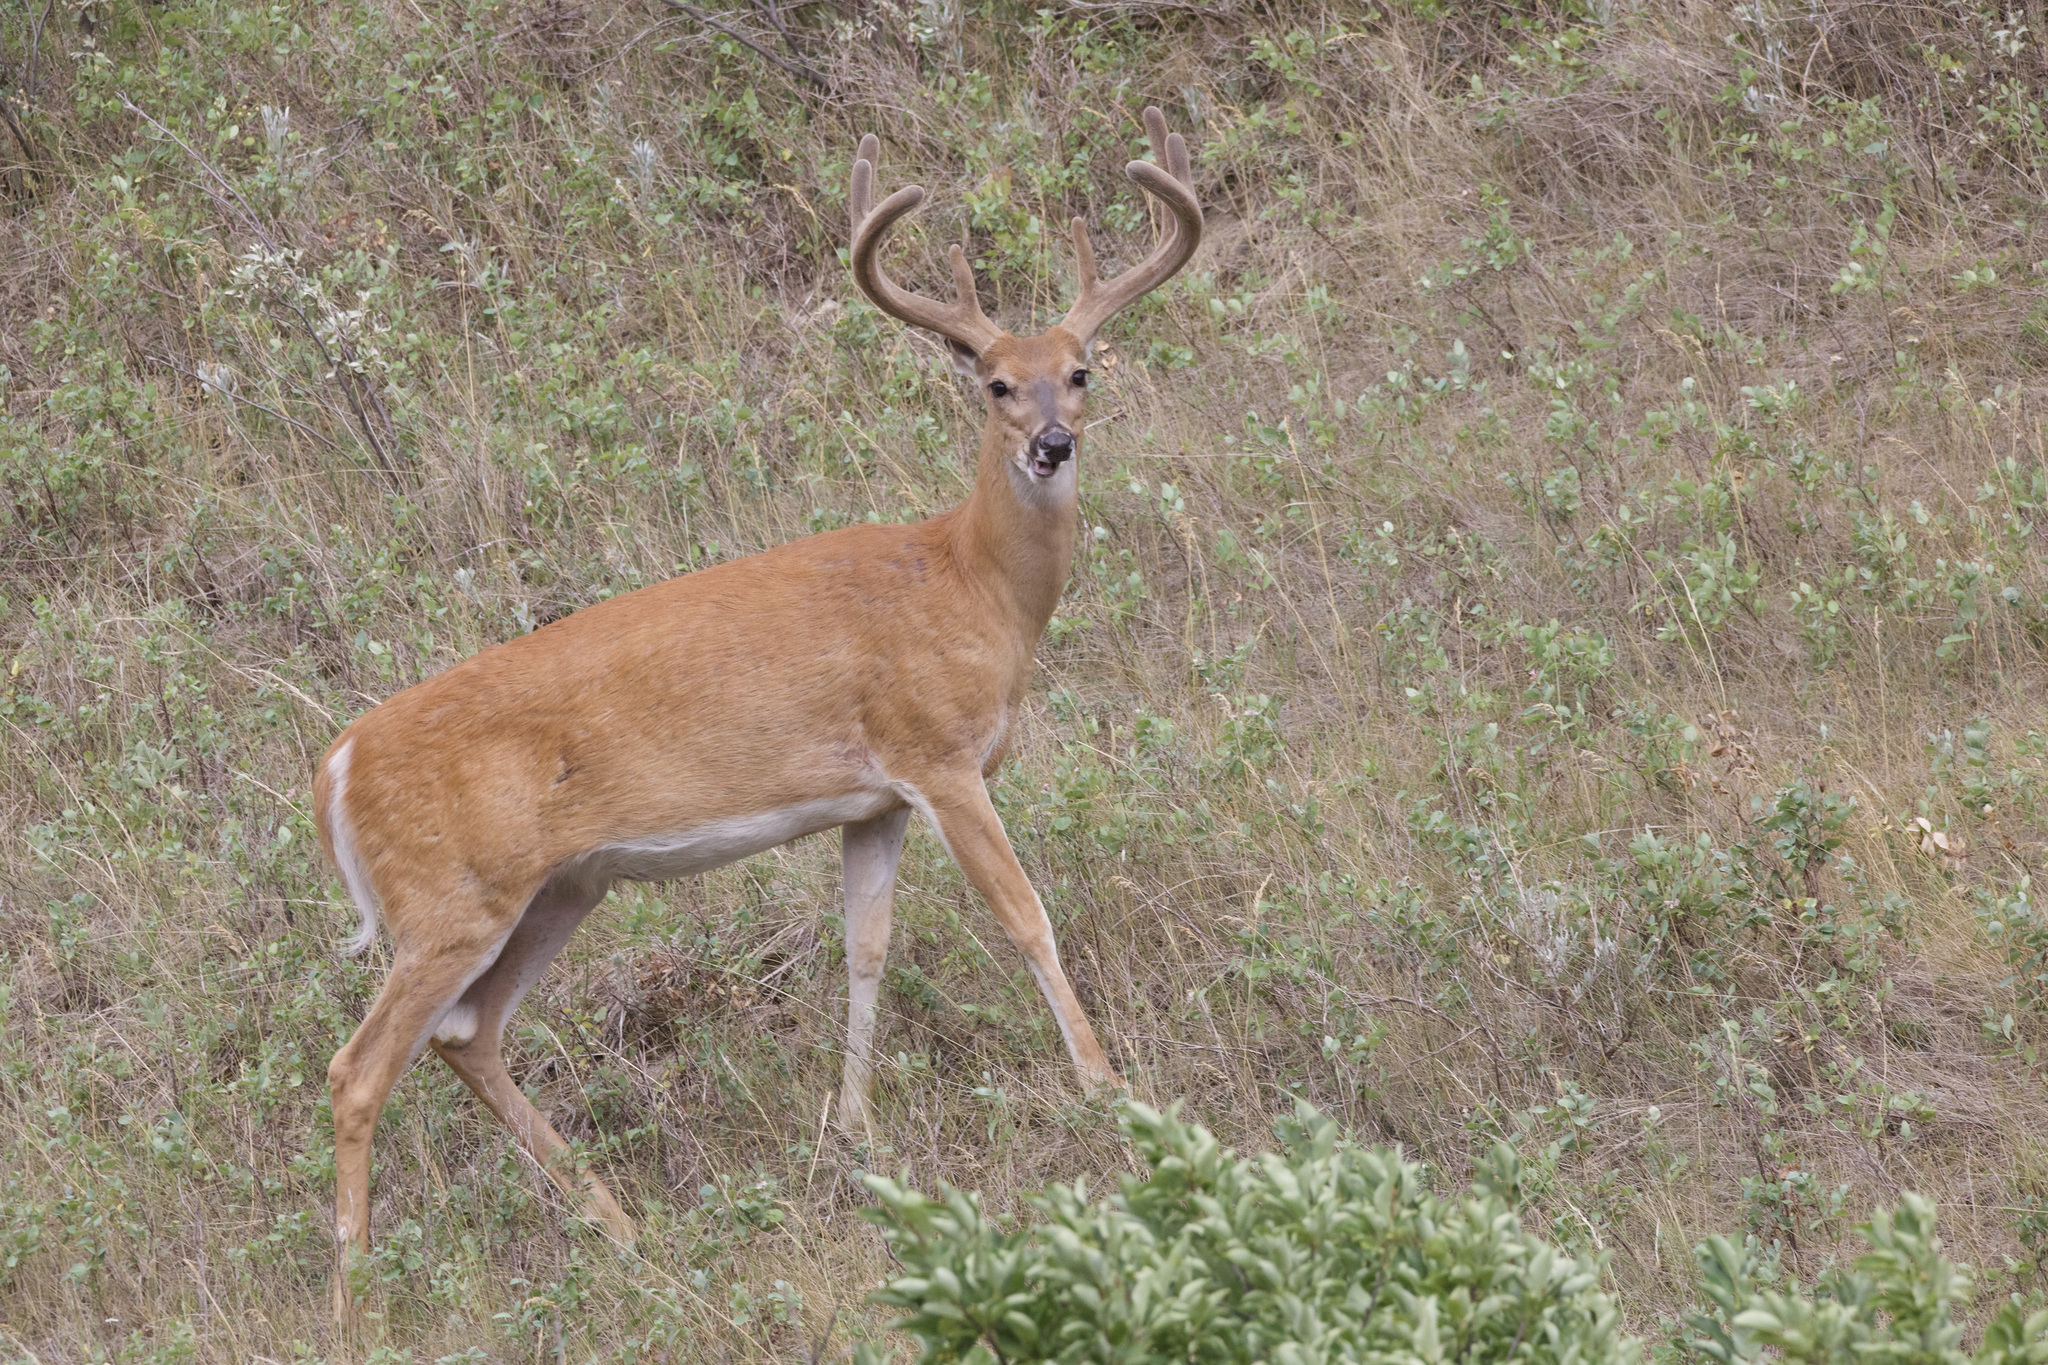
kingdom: Animalia
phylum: Chordata
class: Mammalia
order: Artiodactyla
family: Cervidae
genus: Odocoileus
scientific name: Odocoileus virginianus
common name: White-tailed deer
